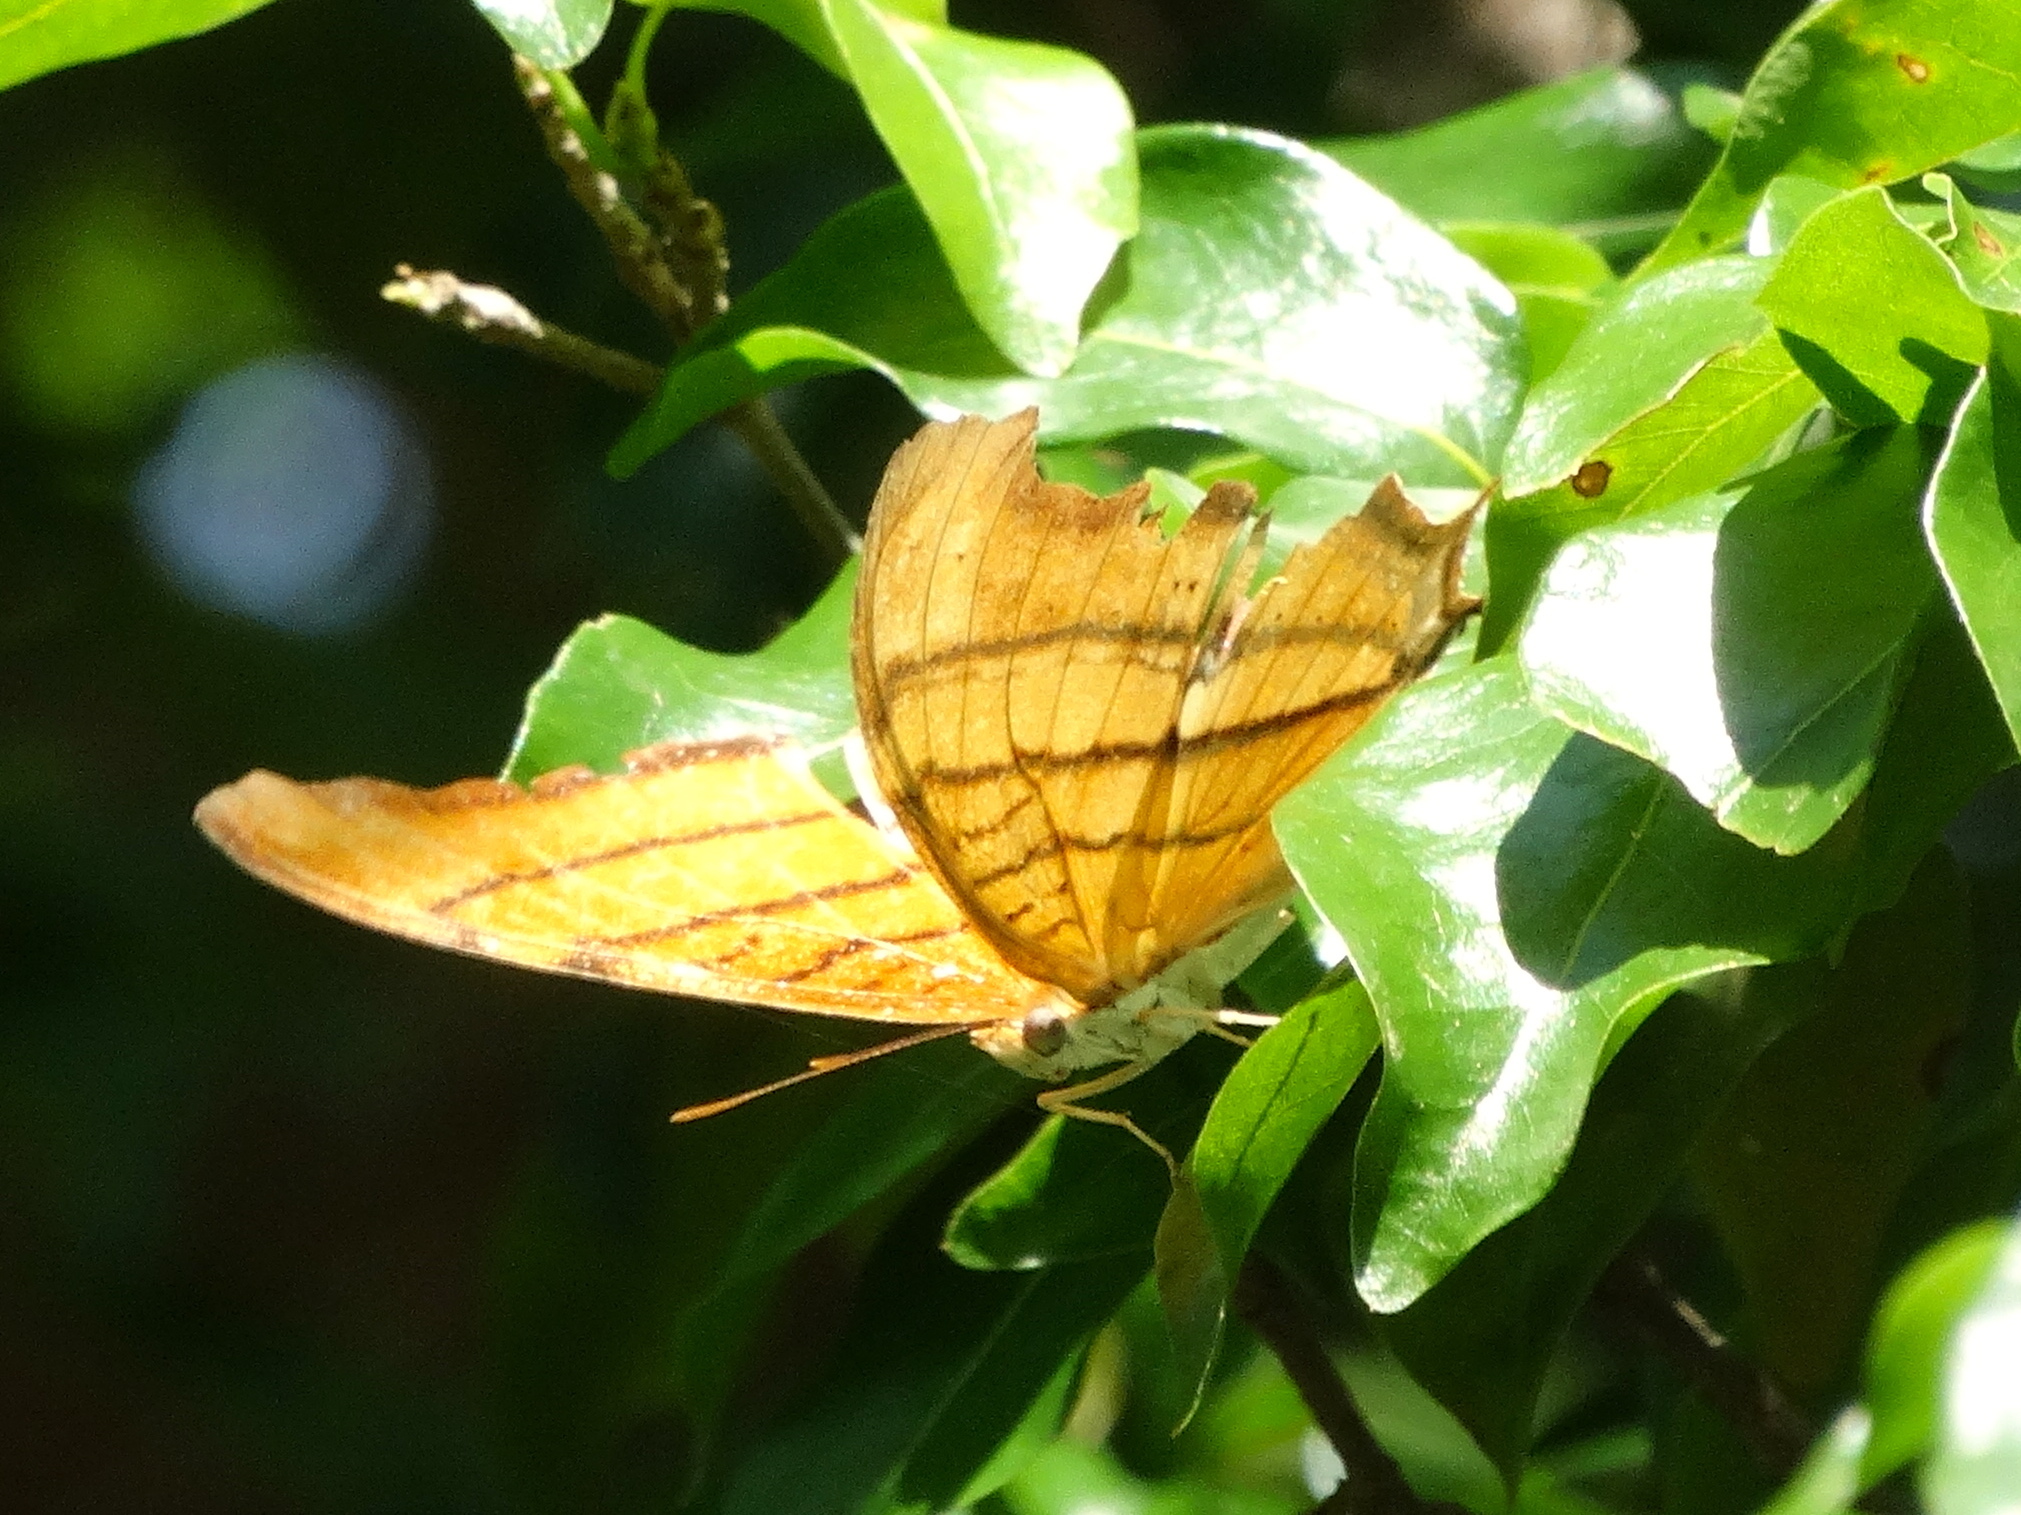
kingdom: Animalia
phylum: Arthropoda
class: Insecta
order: Lepidoptera
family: Nymphalidae
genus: Marpesia
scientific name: Marpesia petreus
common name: Red dagger wing
